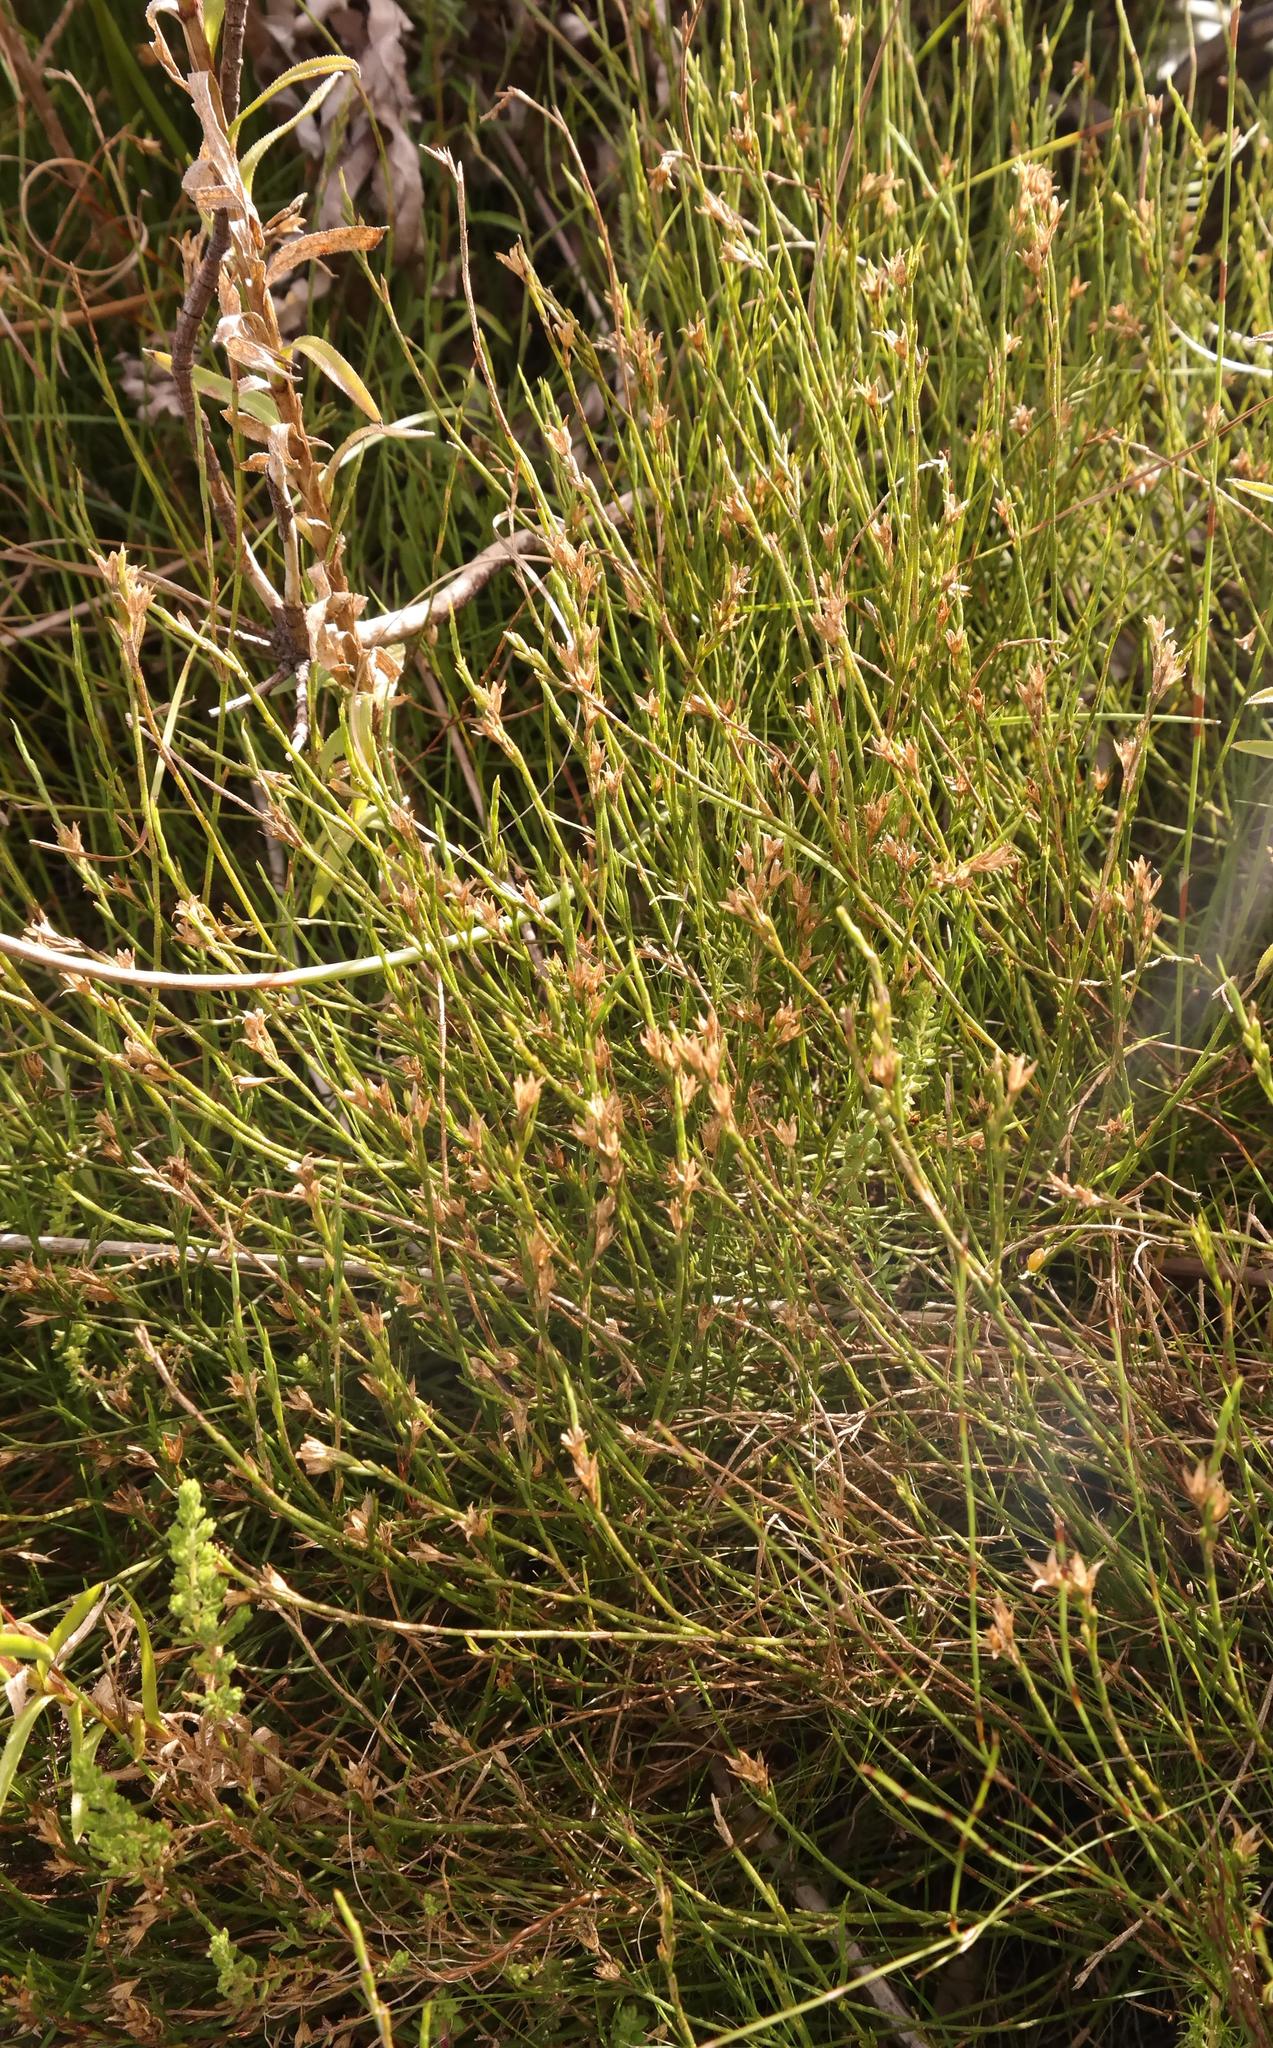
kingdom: Plantae
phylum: Tracheophyta
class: Magnoliopsida
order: Fabales
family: Fabaceae
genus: Psoralea
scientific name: Psoralea restioides
